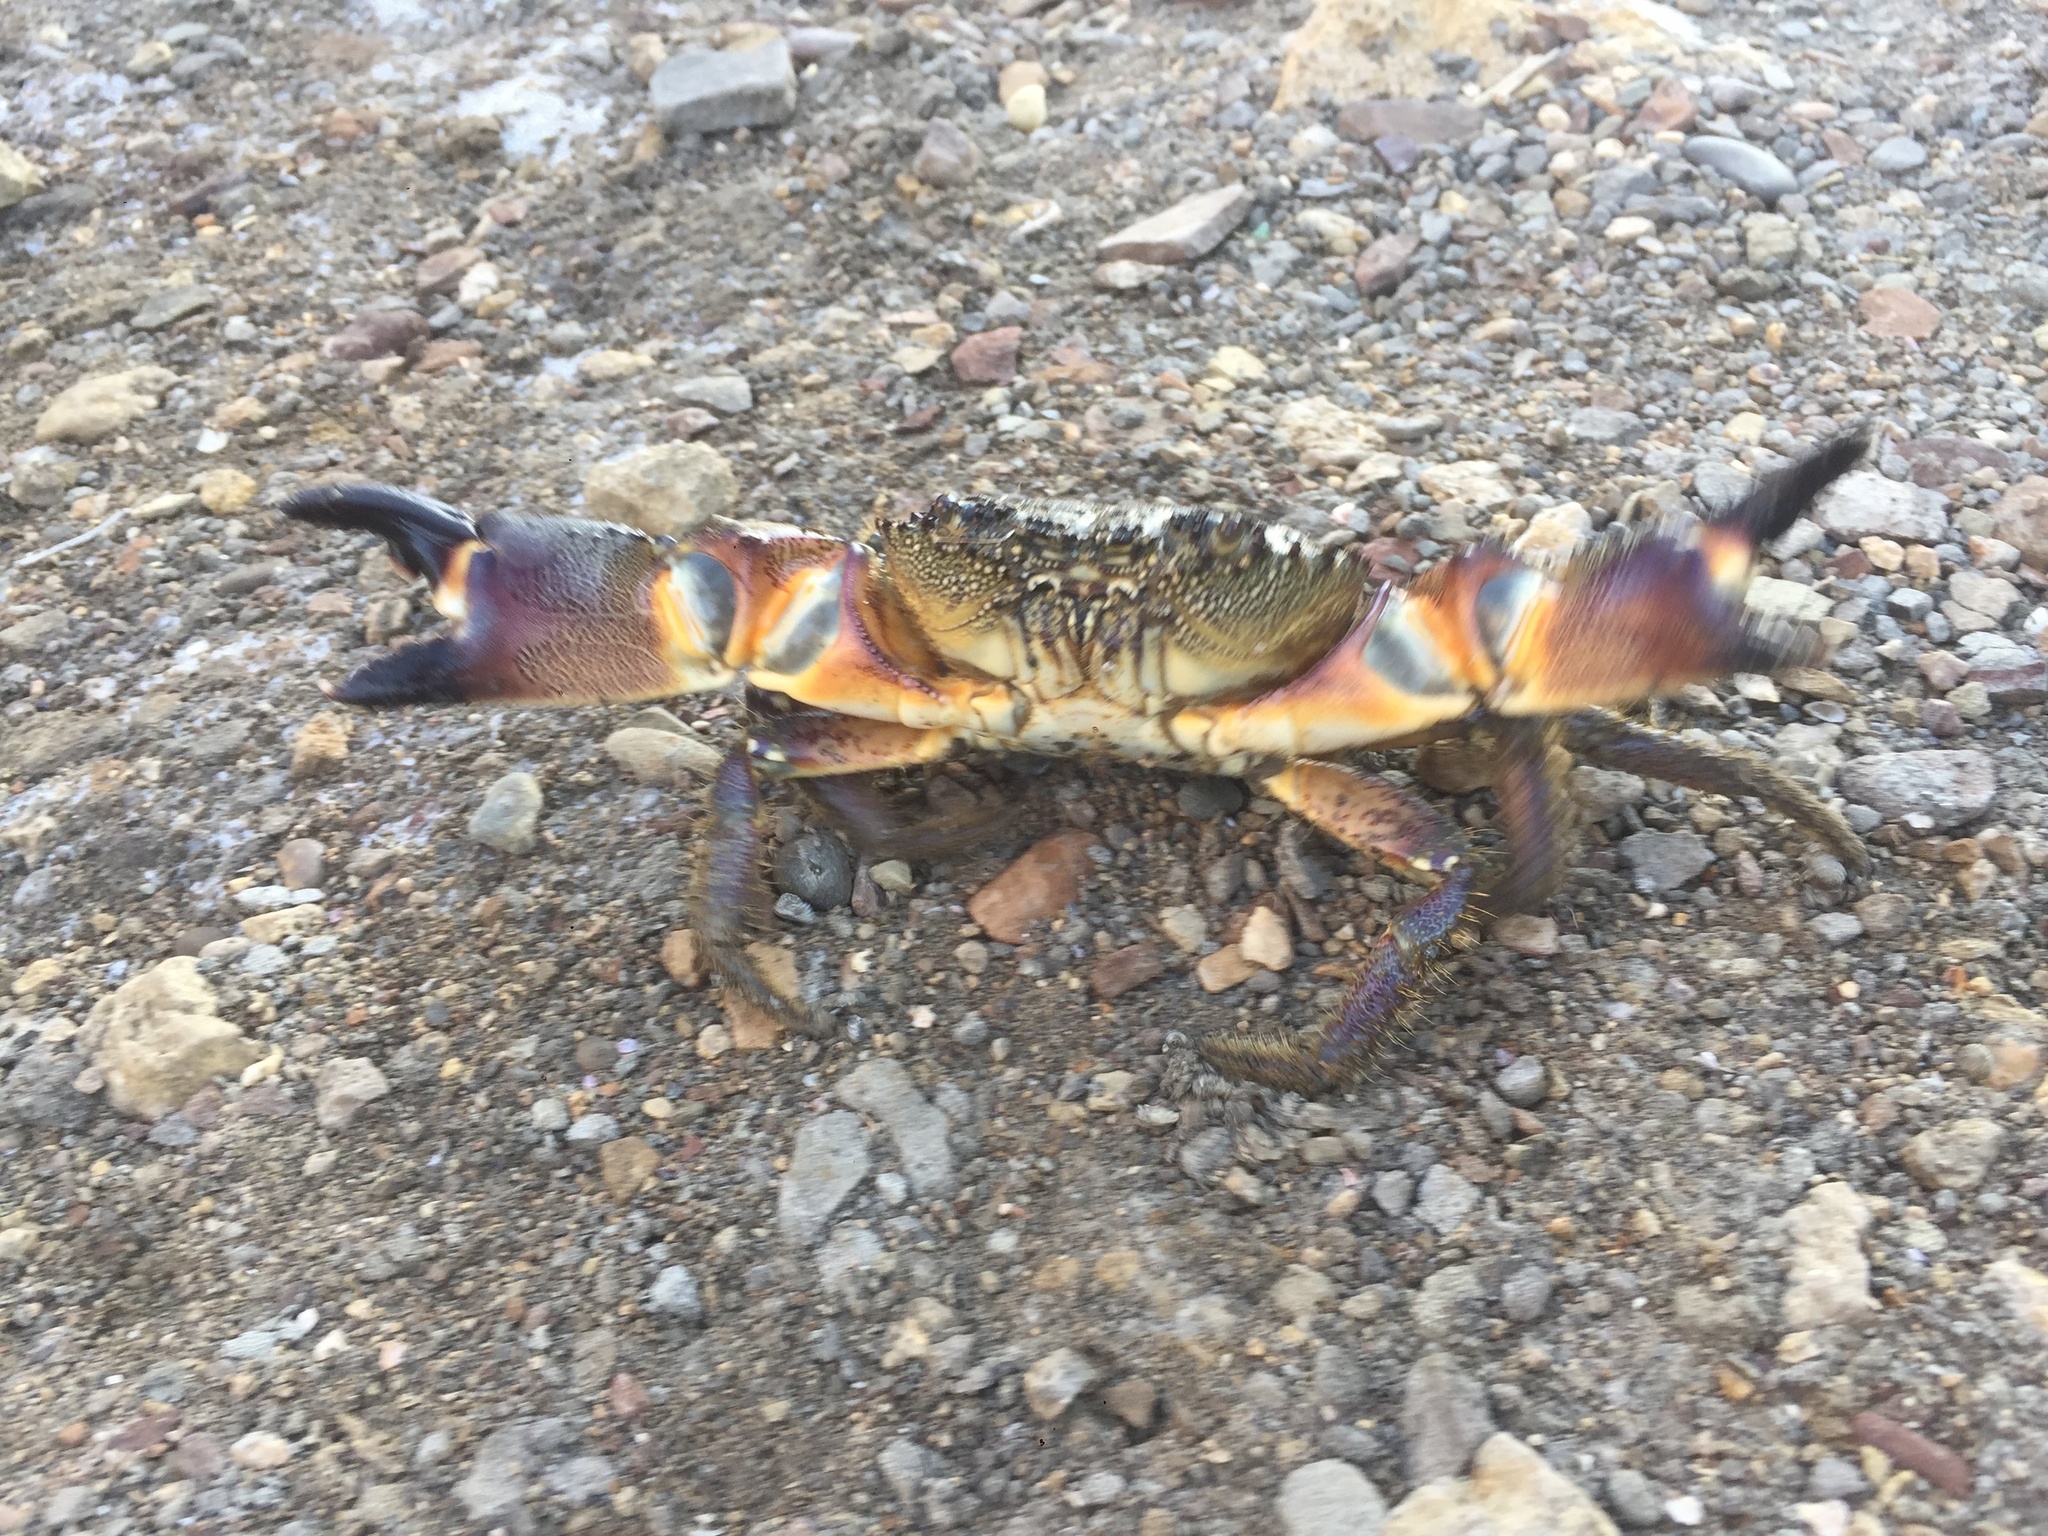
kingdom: Animalia
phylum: Arthropoda
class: Malacostraca
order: Decapoda
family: Eriphiidae
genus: Eriphia
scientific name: Eriphia verrucosa
